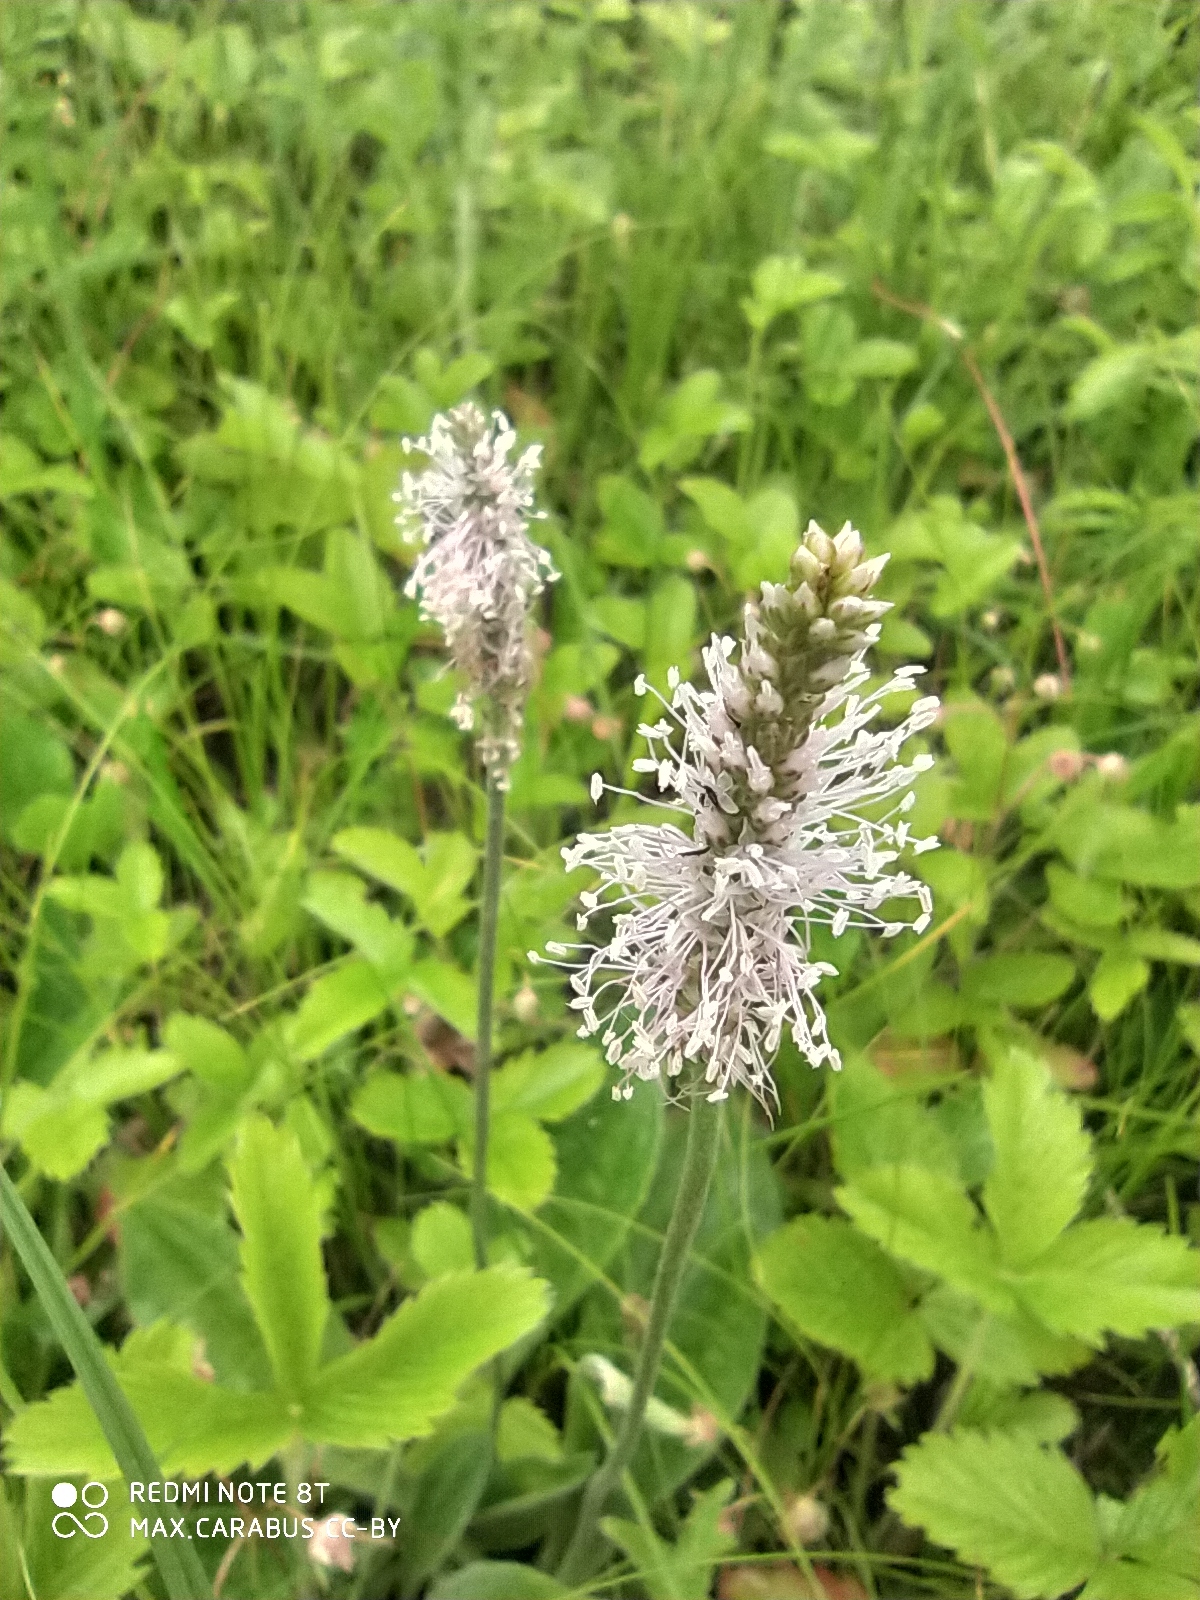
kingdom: Plantae
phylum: Tracheophyta
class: Magnoliopsida
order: Lamiales
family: Plantaginaceae
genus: Plantago
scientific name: Plantago media
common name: Hoary plantain
